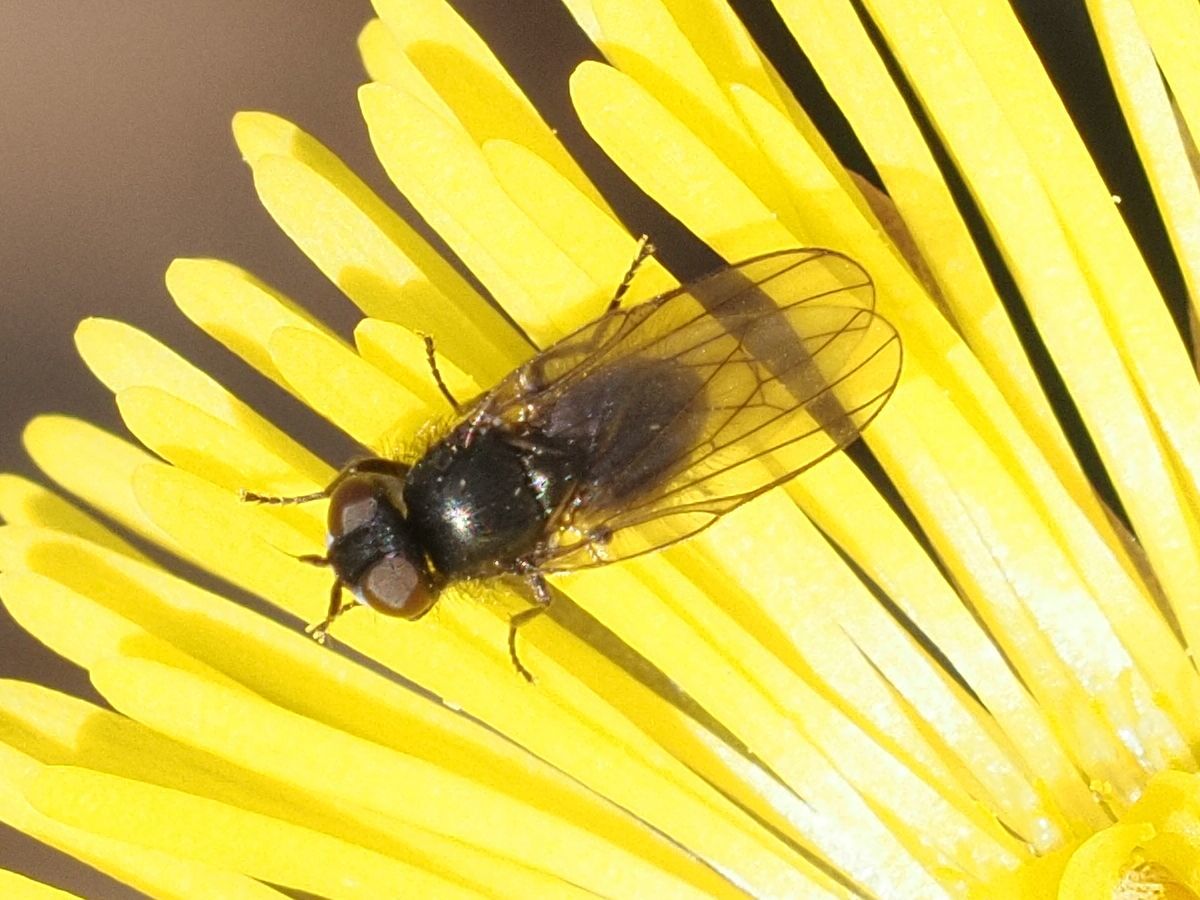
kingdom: Animalia
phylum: Arthropoda
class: Insecta
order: Diptera
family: Lonchaeidae
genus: Earomyia
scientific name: Earomyia lonchaeoides
